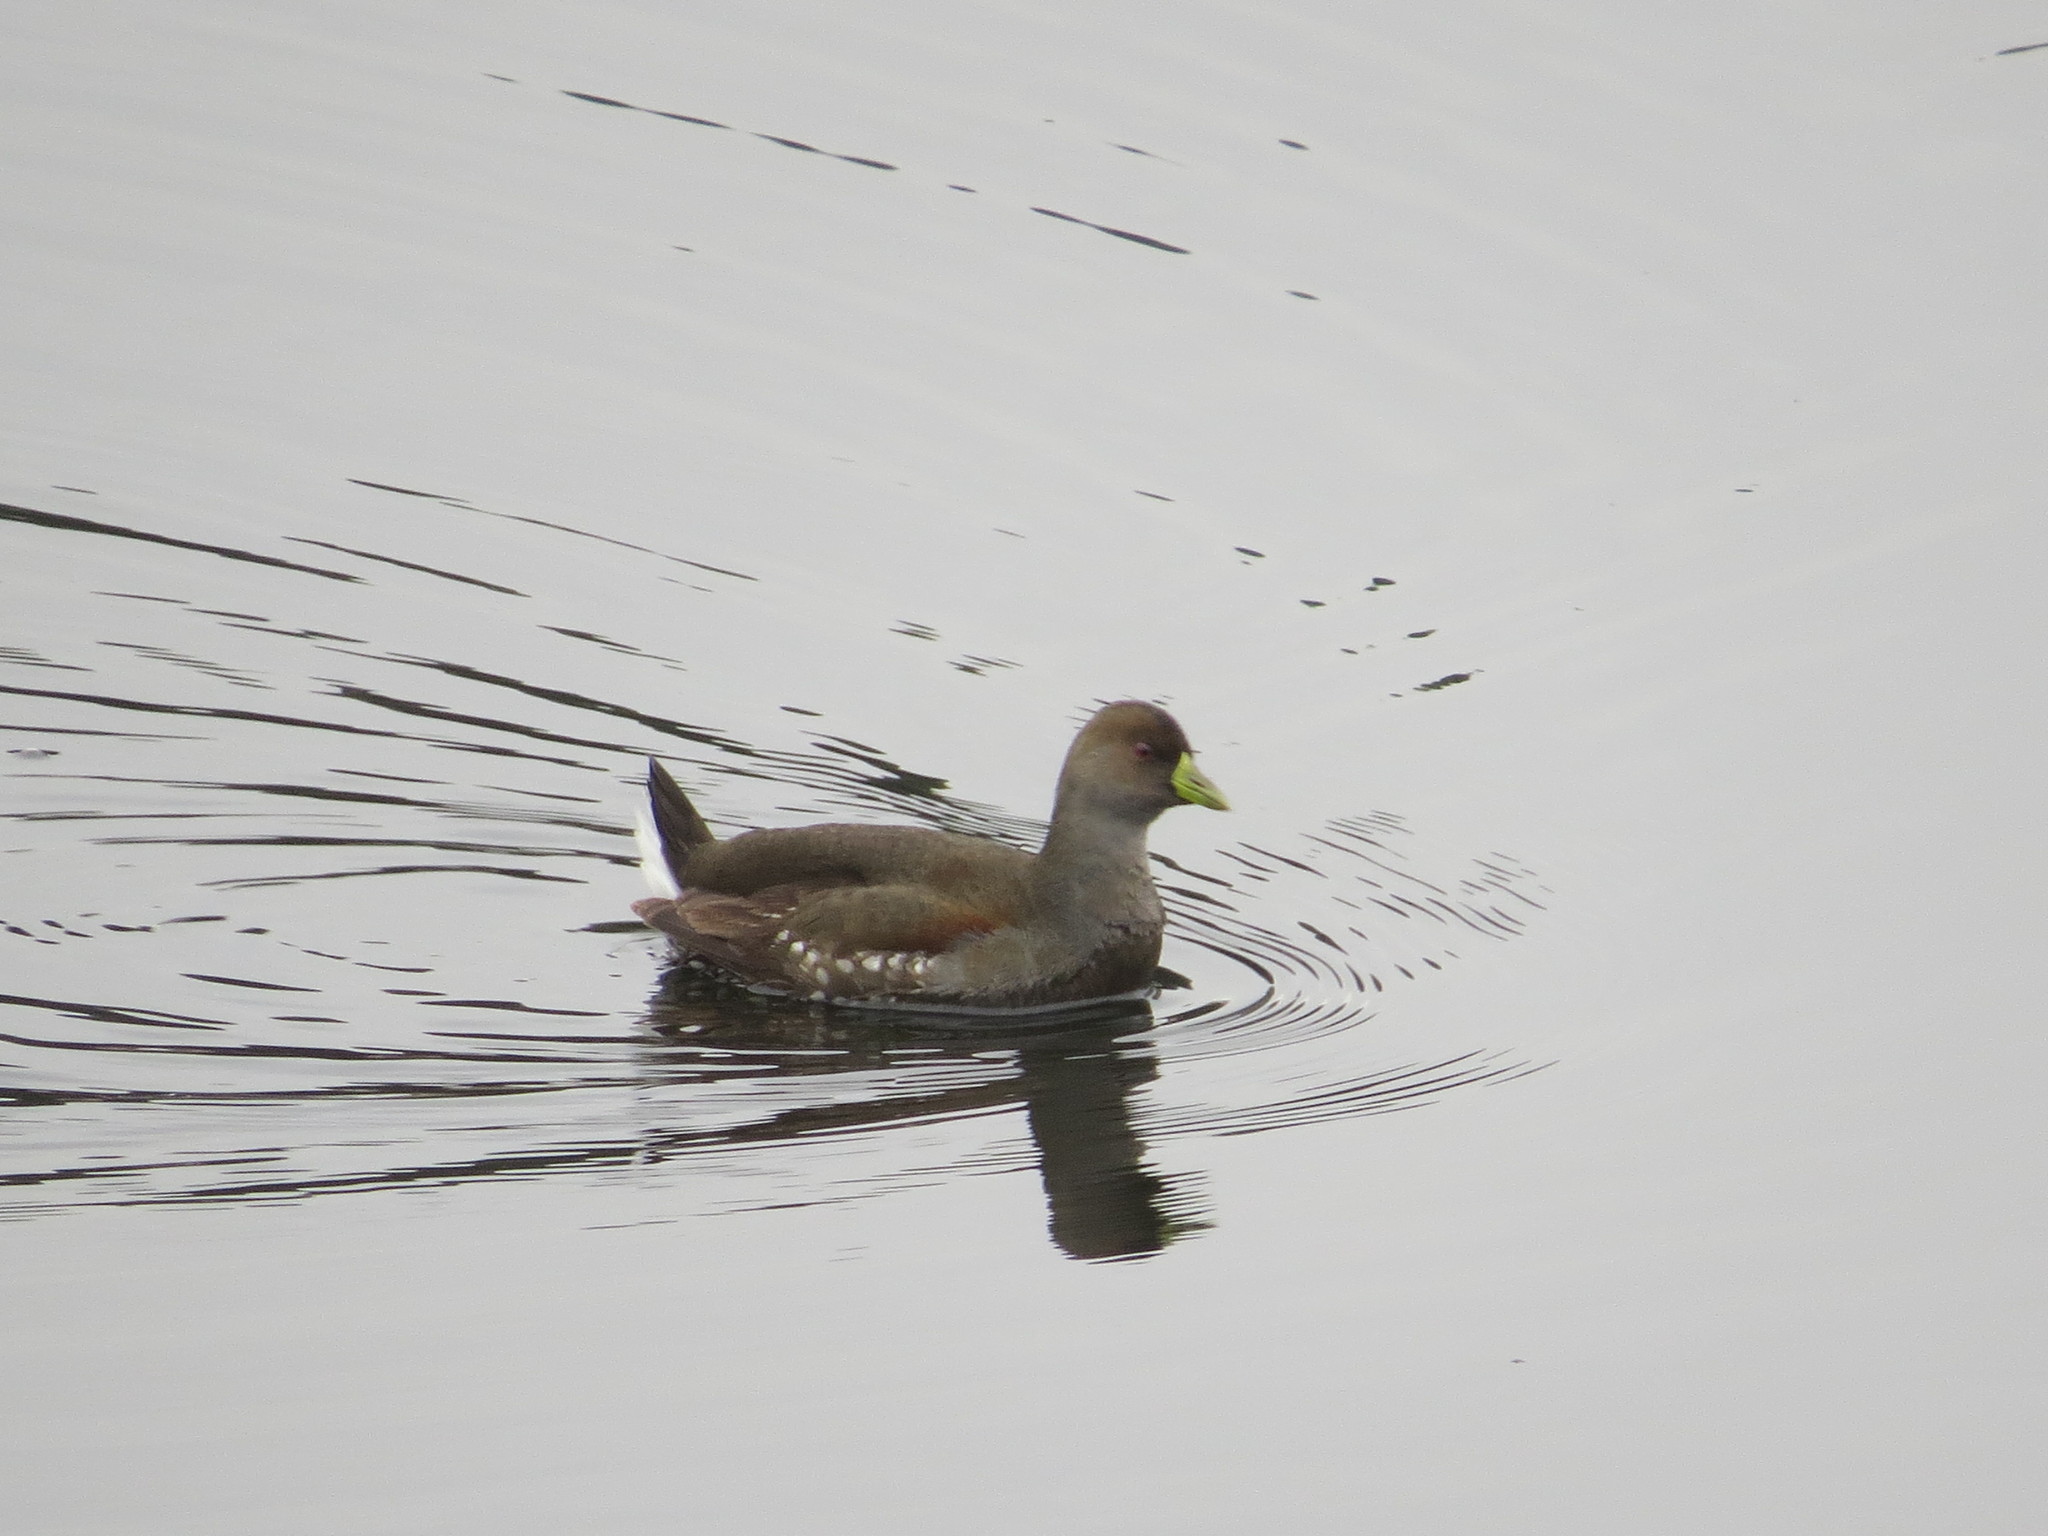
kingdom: Animalia
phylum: Chordata
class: Aves
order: Gruiformes
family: Rallidae
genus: Gallinula
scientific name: Gallinula melanops
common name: Spot-flanked gallinule
